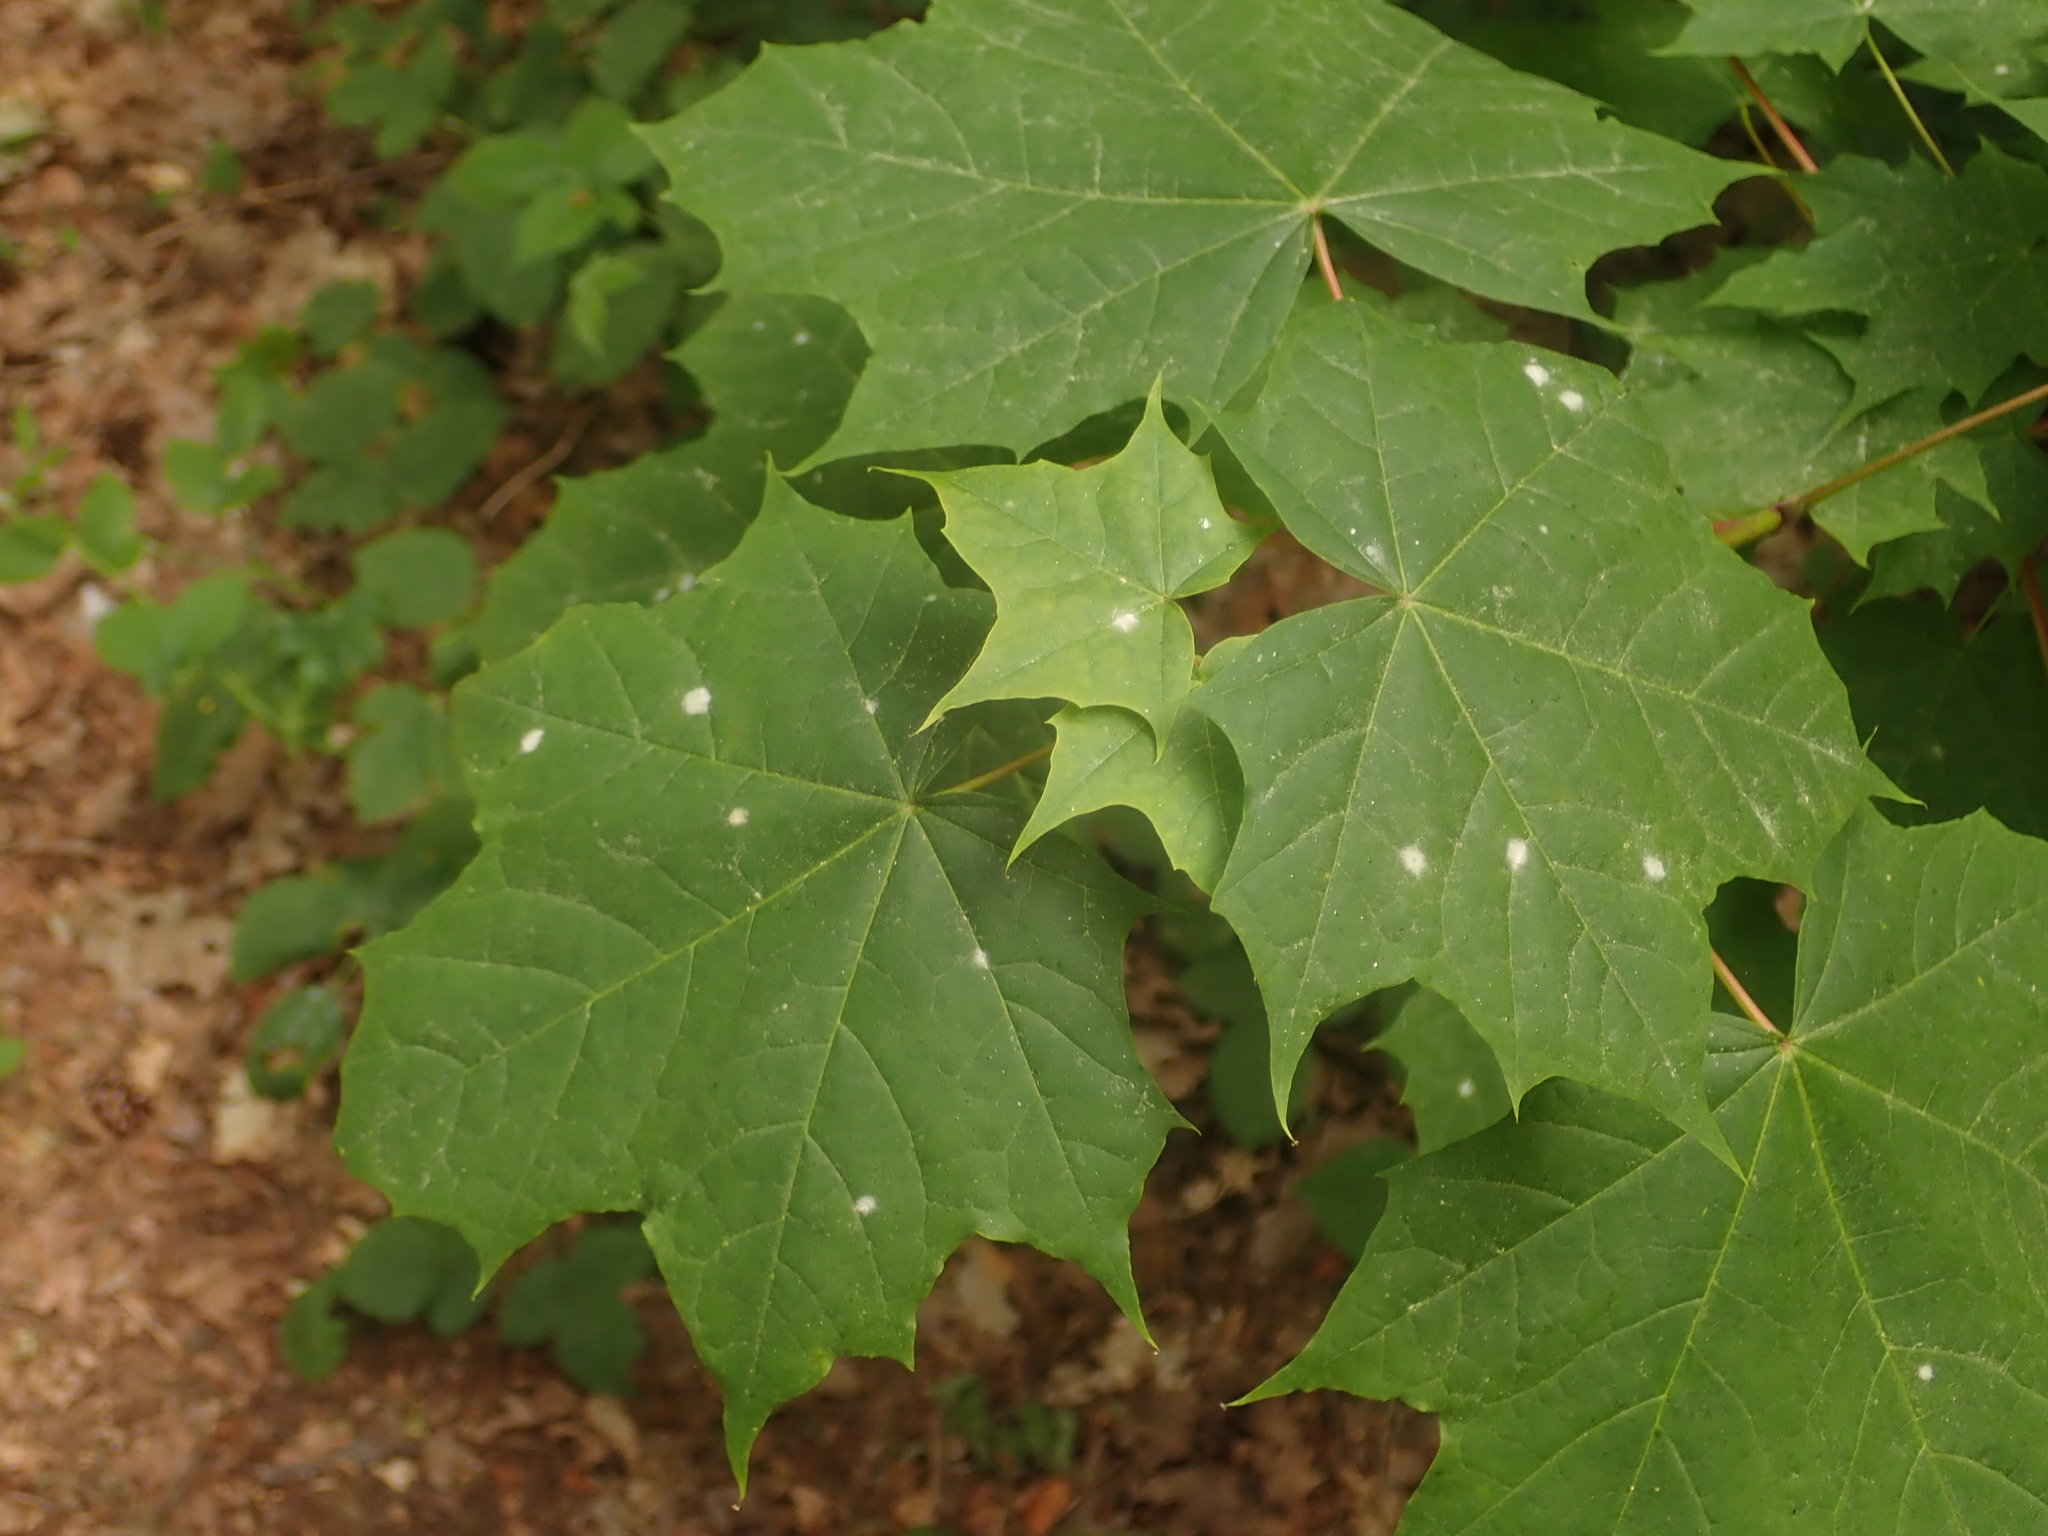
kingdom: Plantae
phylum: Tracheophyta
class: Magnoliopsida
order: Sapindales
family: Sapindaceae
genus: Acer
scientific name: Acer platanoides
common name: Norway maple
